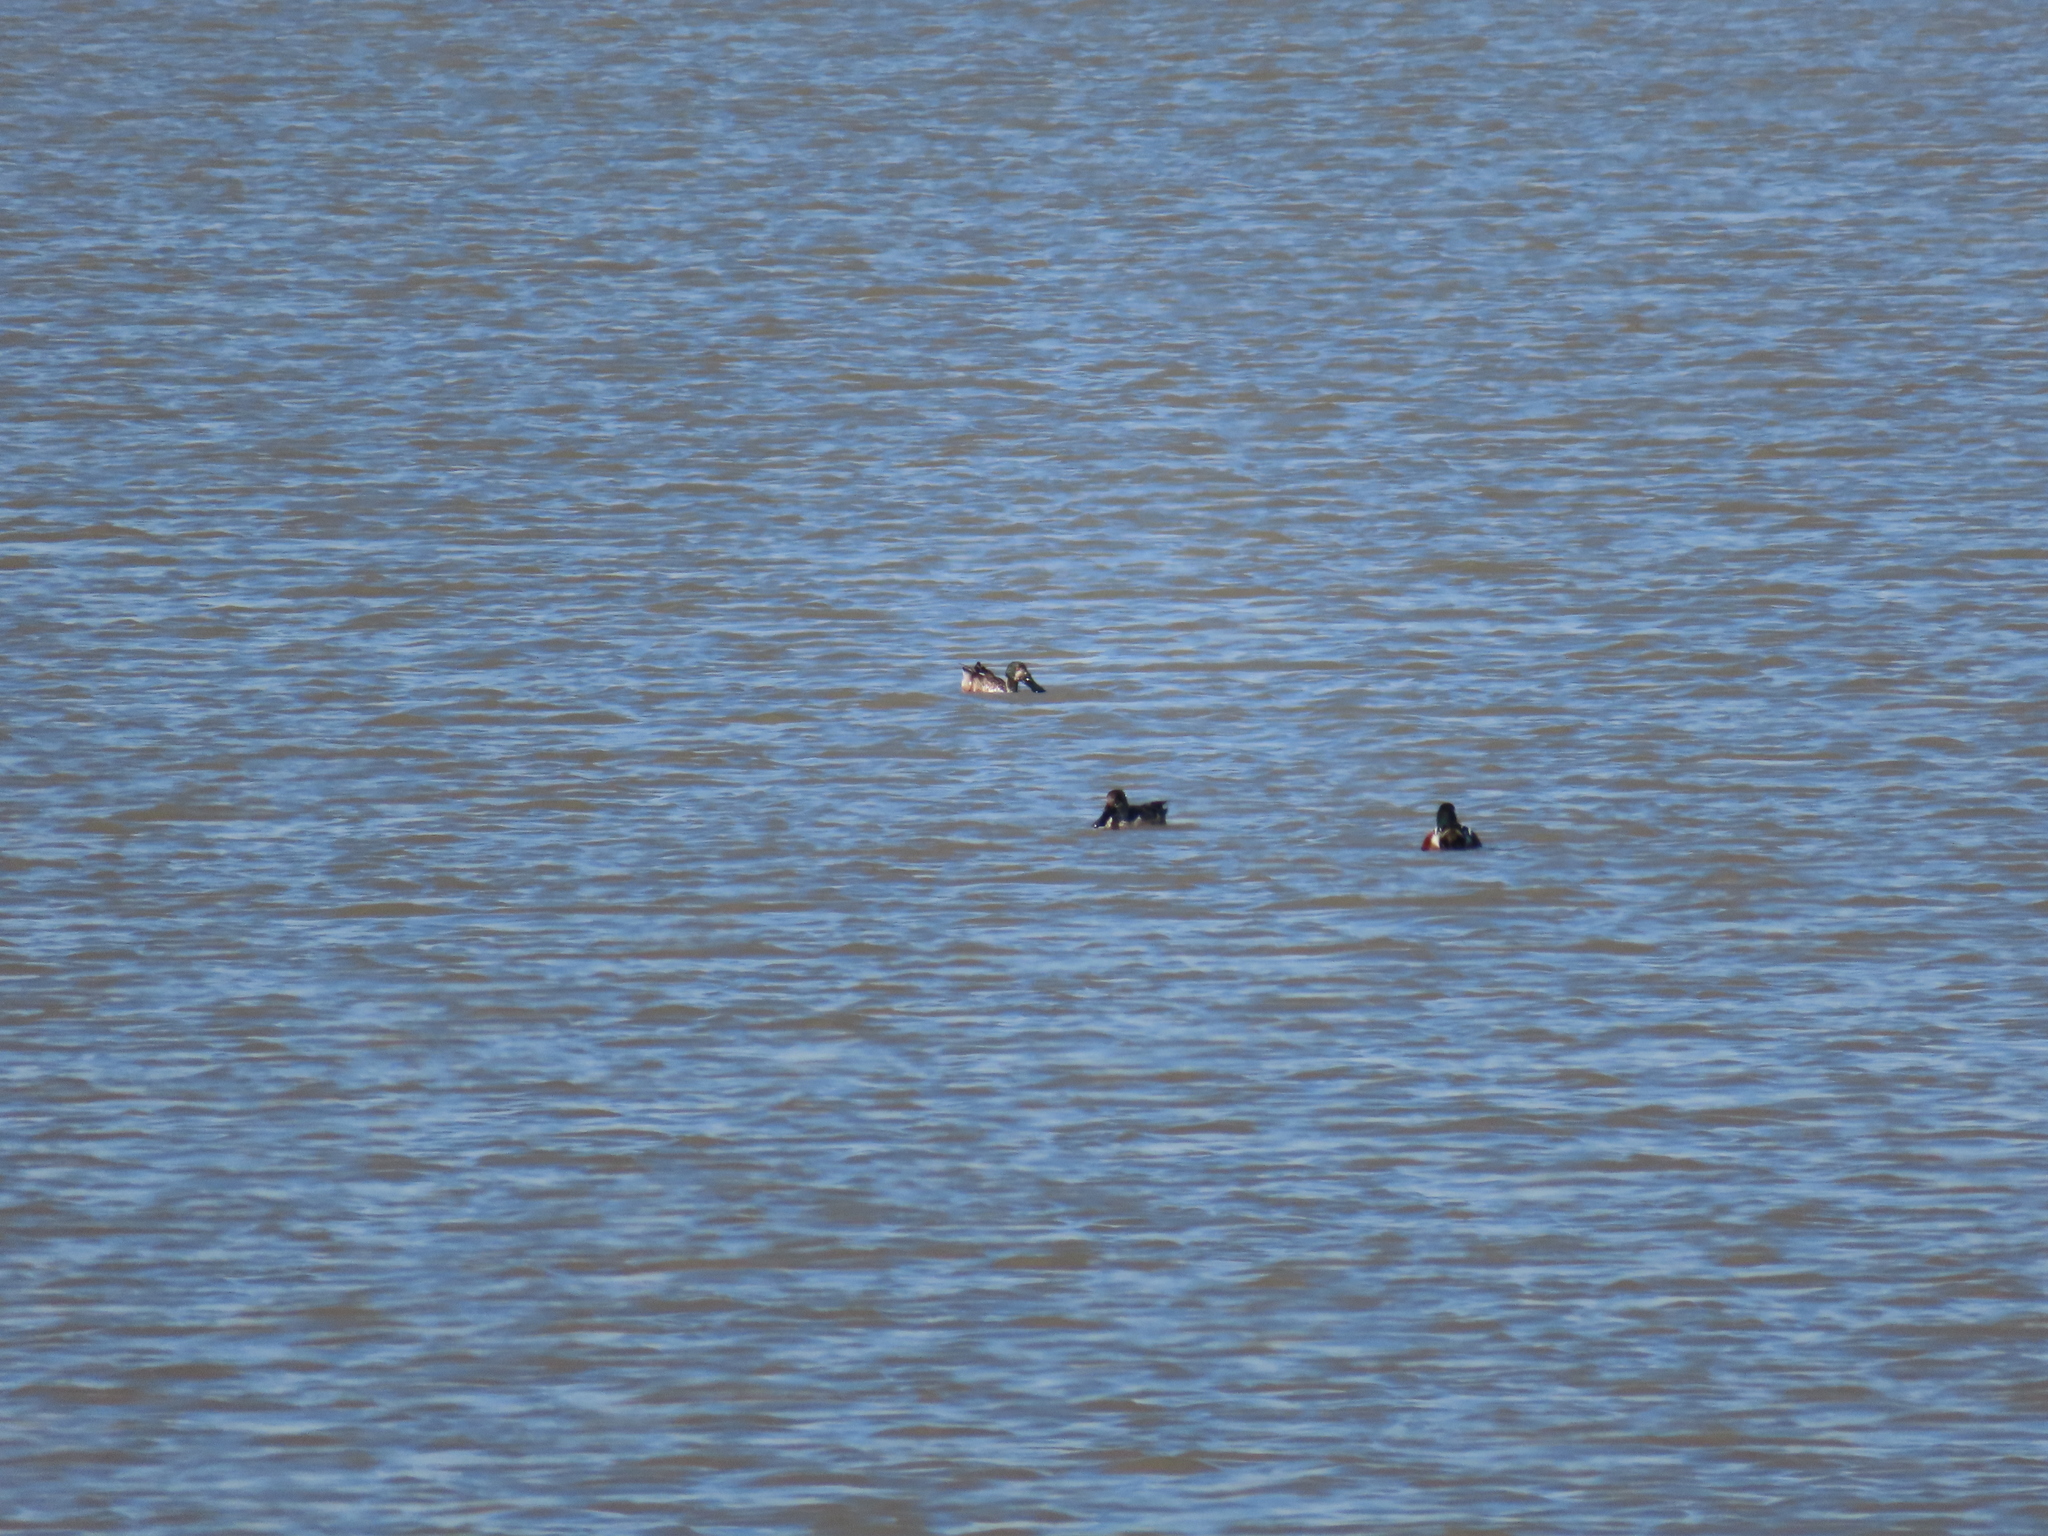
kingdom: Animalia
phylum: Chordata
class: Aves
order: Anseriformes
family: Anatidae
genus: Spatula
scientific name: Spatula clypeata
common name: Northern shoveler
